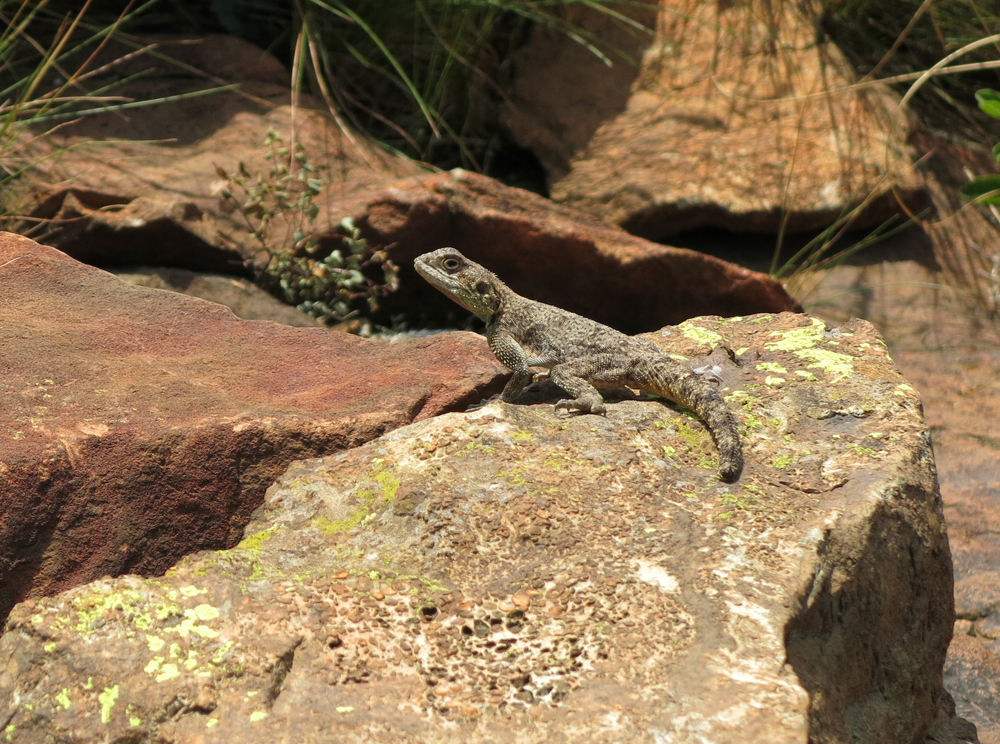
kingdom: Animalia
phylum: Chordata
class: Squamata
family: Agamidae
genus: Agama
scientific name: Agama atra
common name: Southern african rock agama
